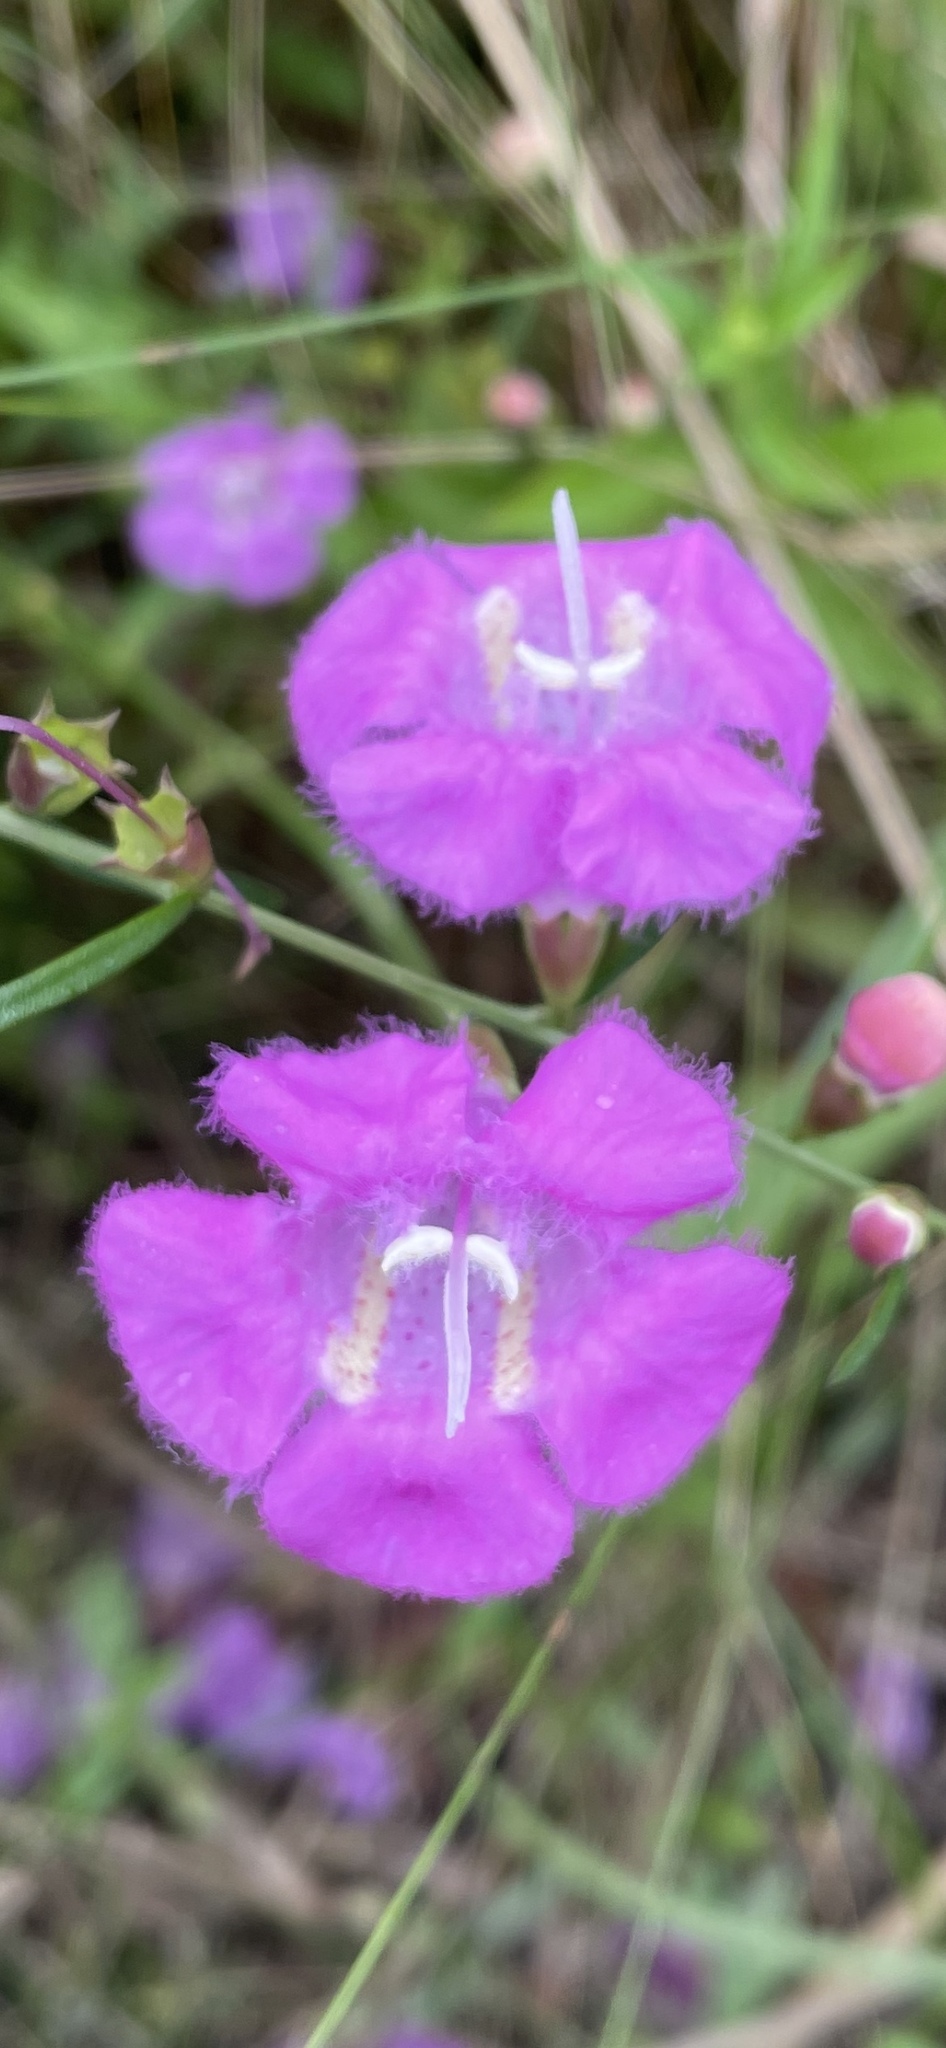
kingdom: Plantae
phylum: Tracheophyta
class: Magnoliopsida
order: Lamiales
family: Orobanchaceae
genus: Agalinis
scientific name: Agalinis purpurea
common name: Purple false foxglove
